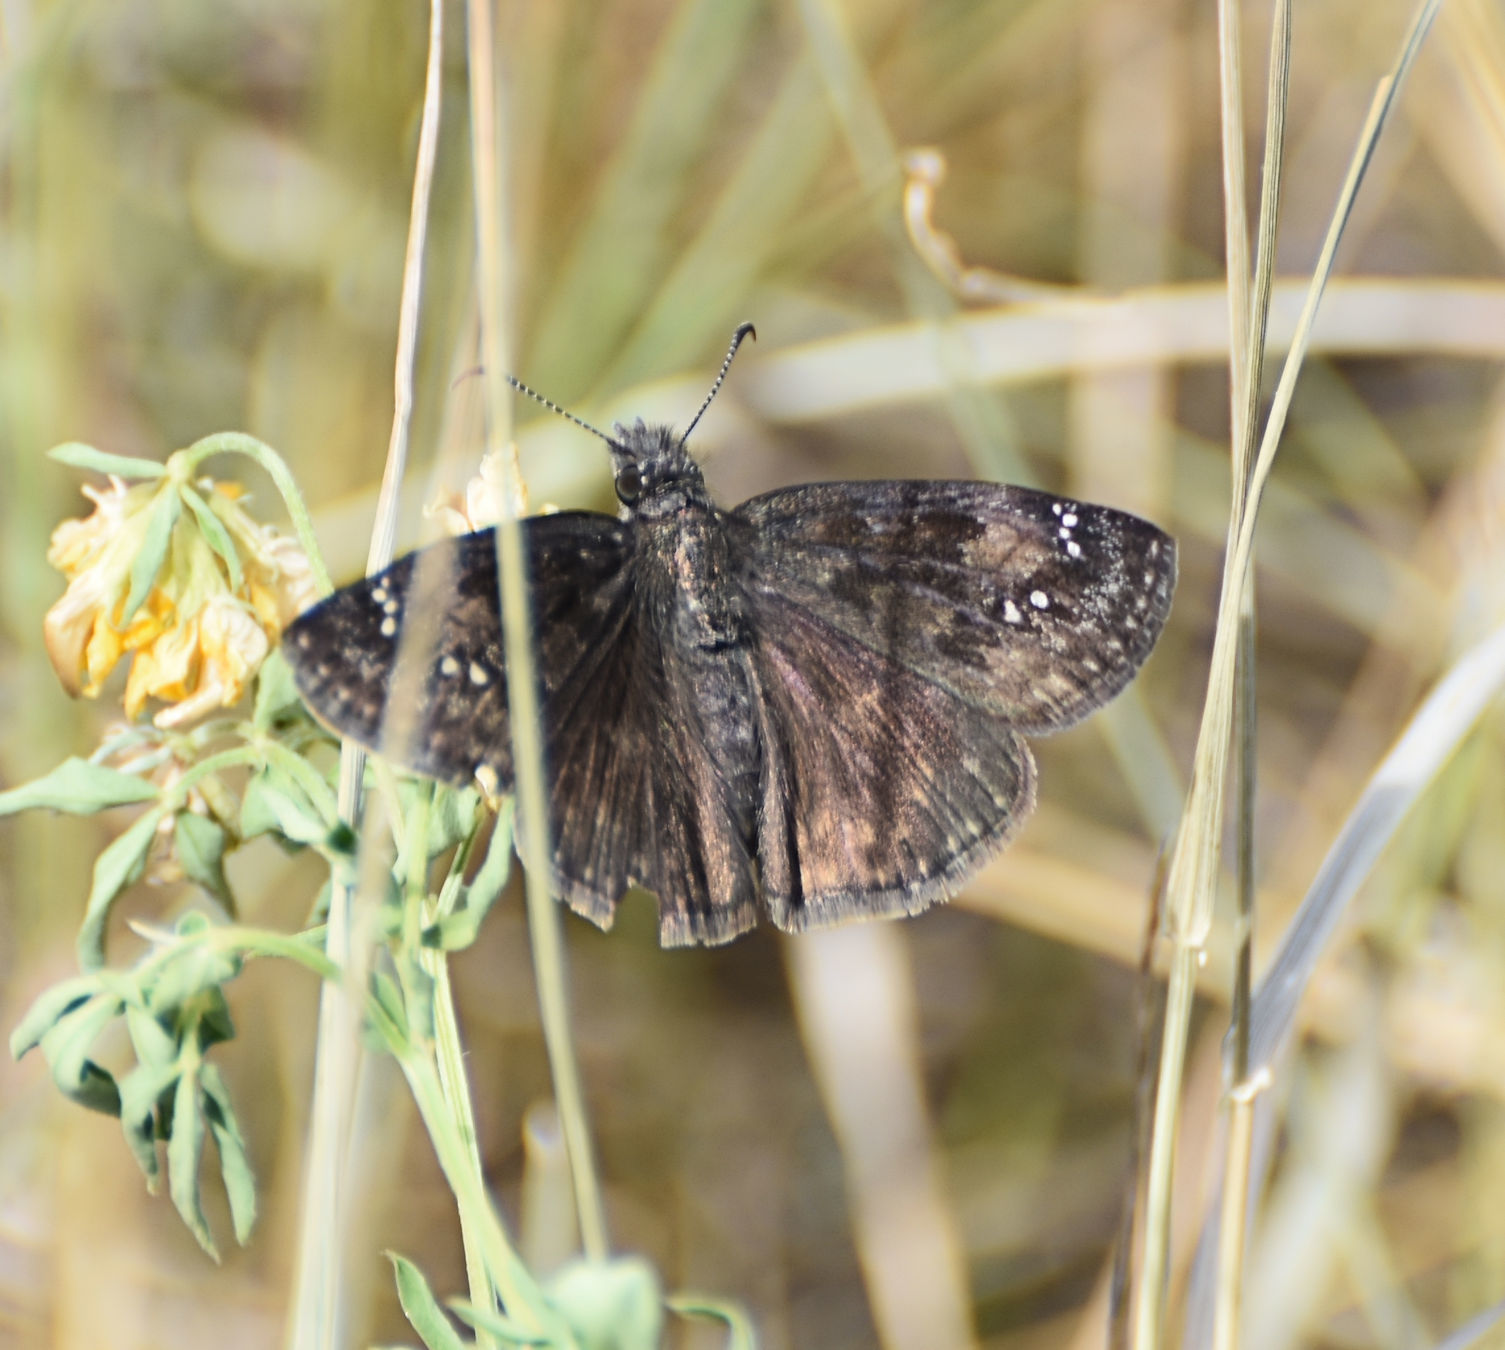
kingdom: Animalia
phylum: Arthropoda
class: Insecta
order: Lepidoptera
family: Hesperiidae
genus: Erynnis
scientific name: Erynnis baptisiae
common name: Wild indigo duskywing
